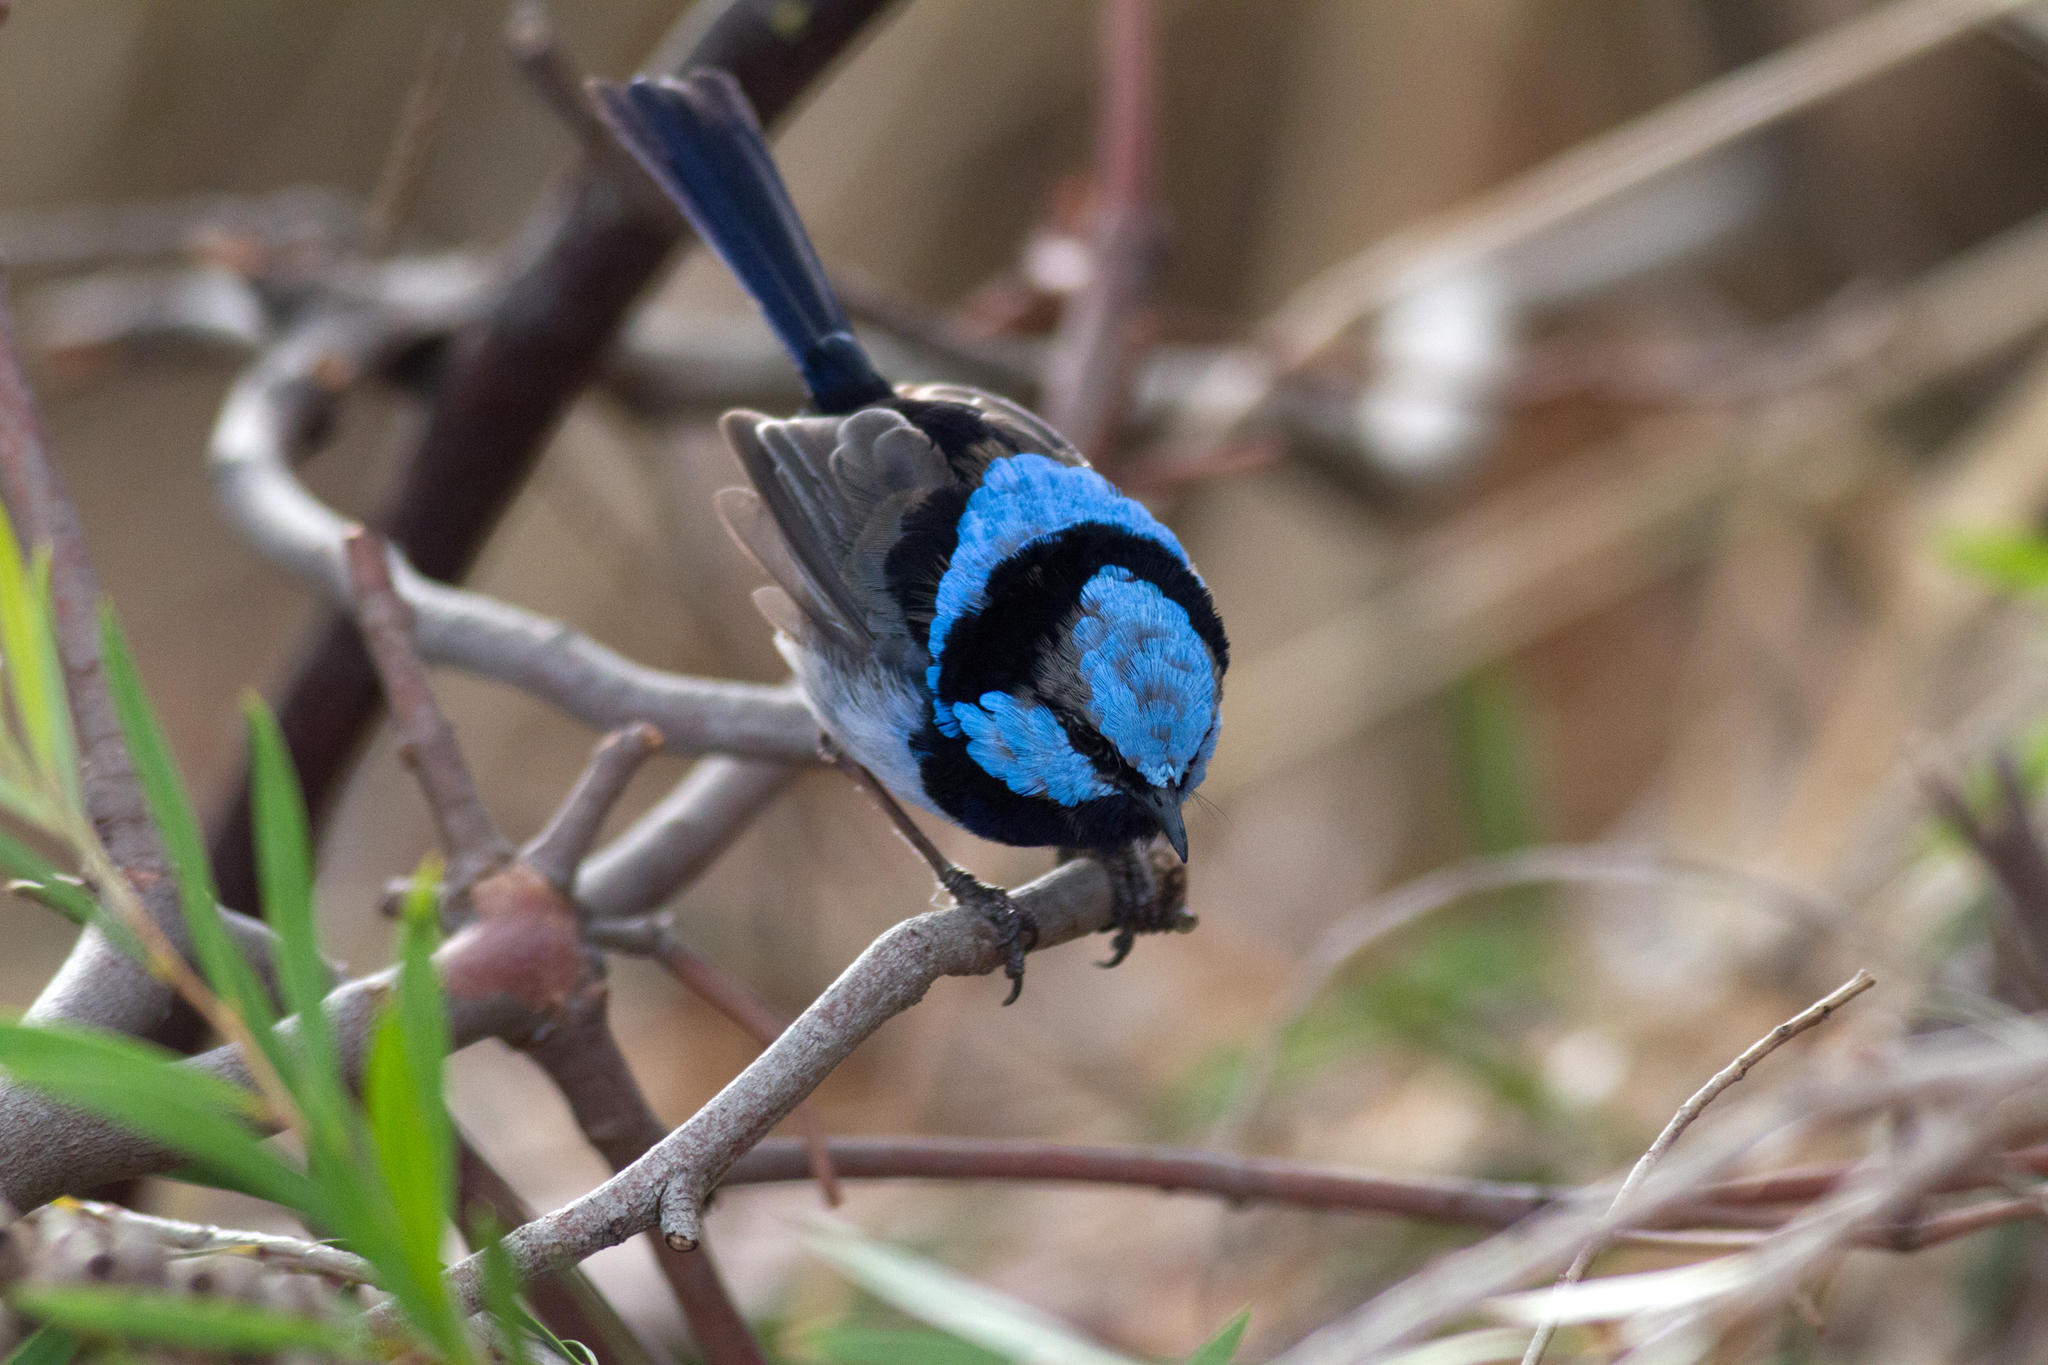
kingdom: Animalia
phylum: Chordata
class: Aves
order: Passeriformes
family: Maluridae
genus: Malurus
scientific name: Malurus cyaneus
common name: Superb fairywren
